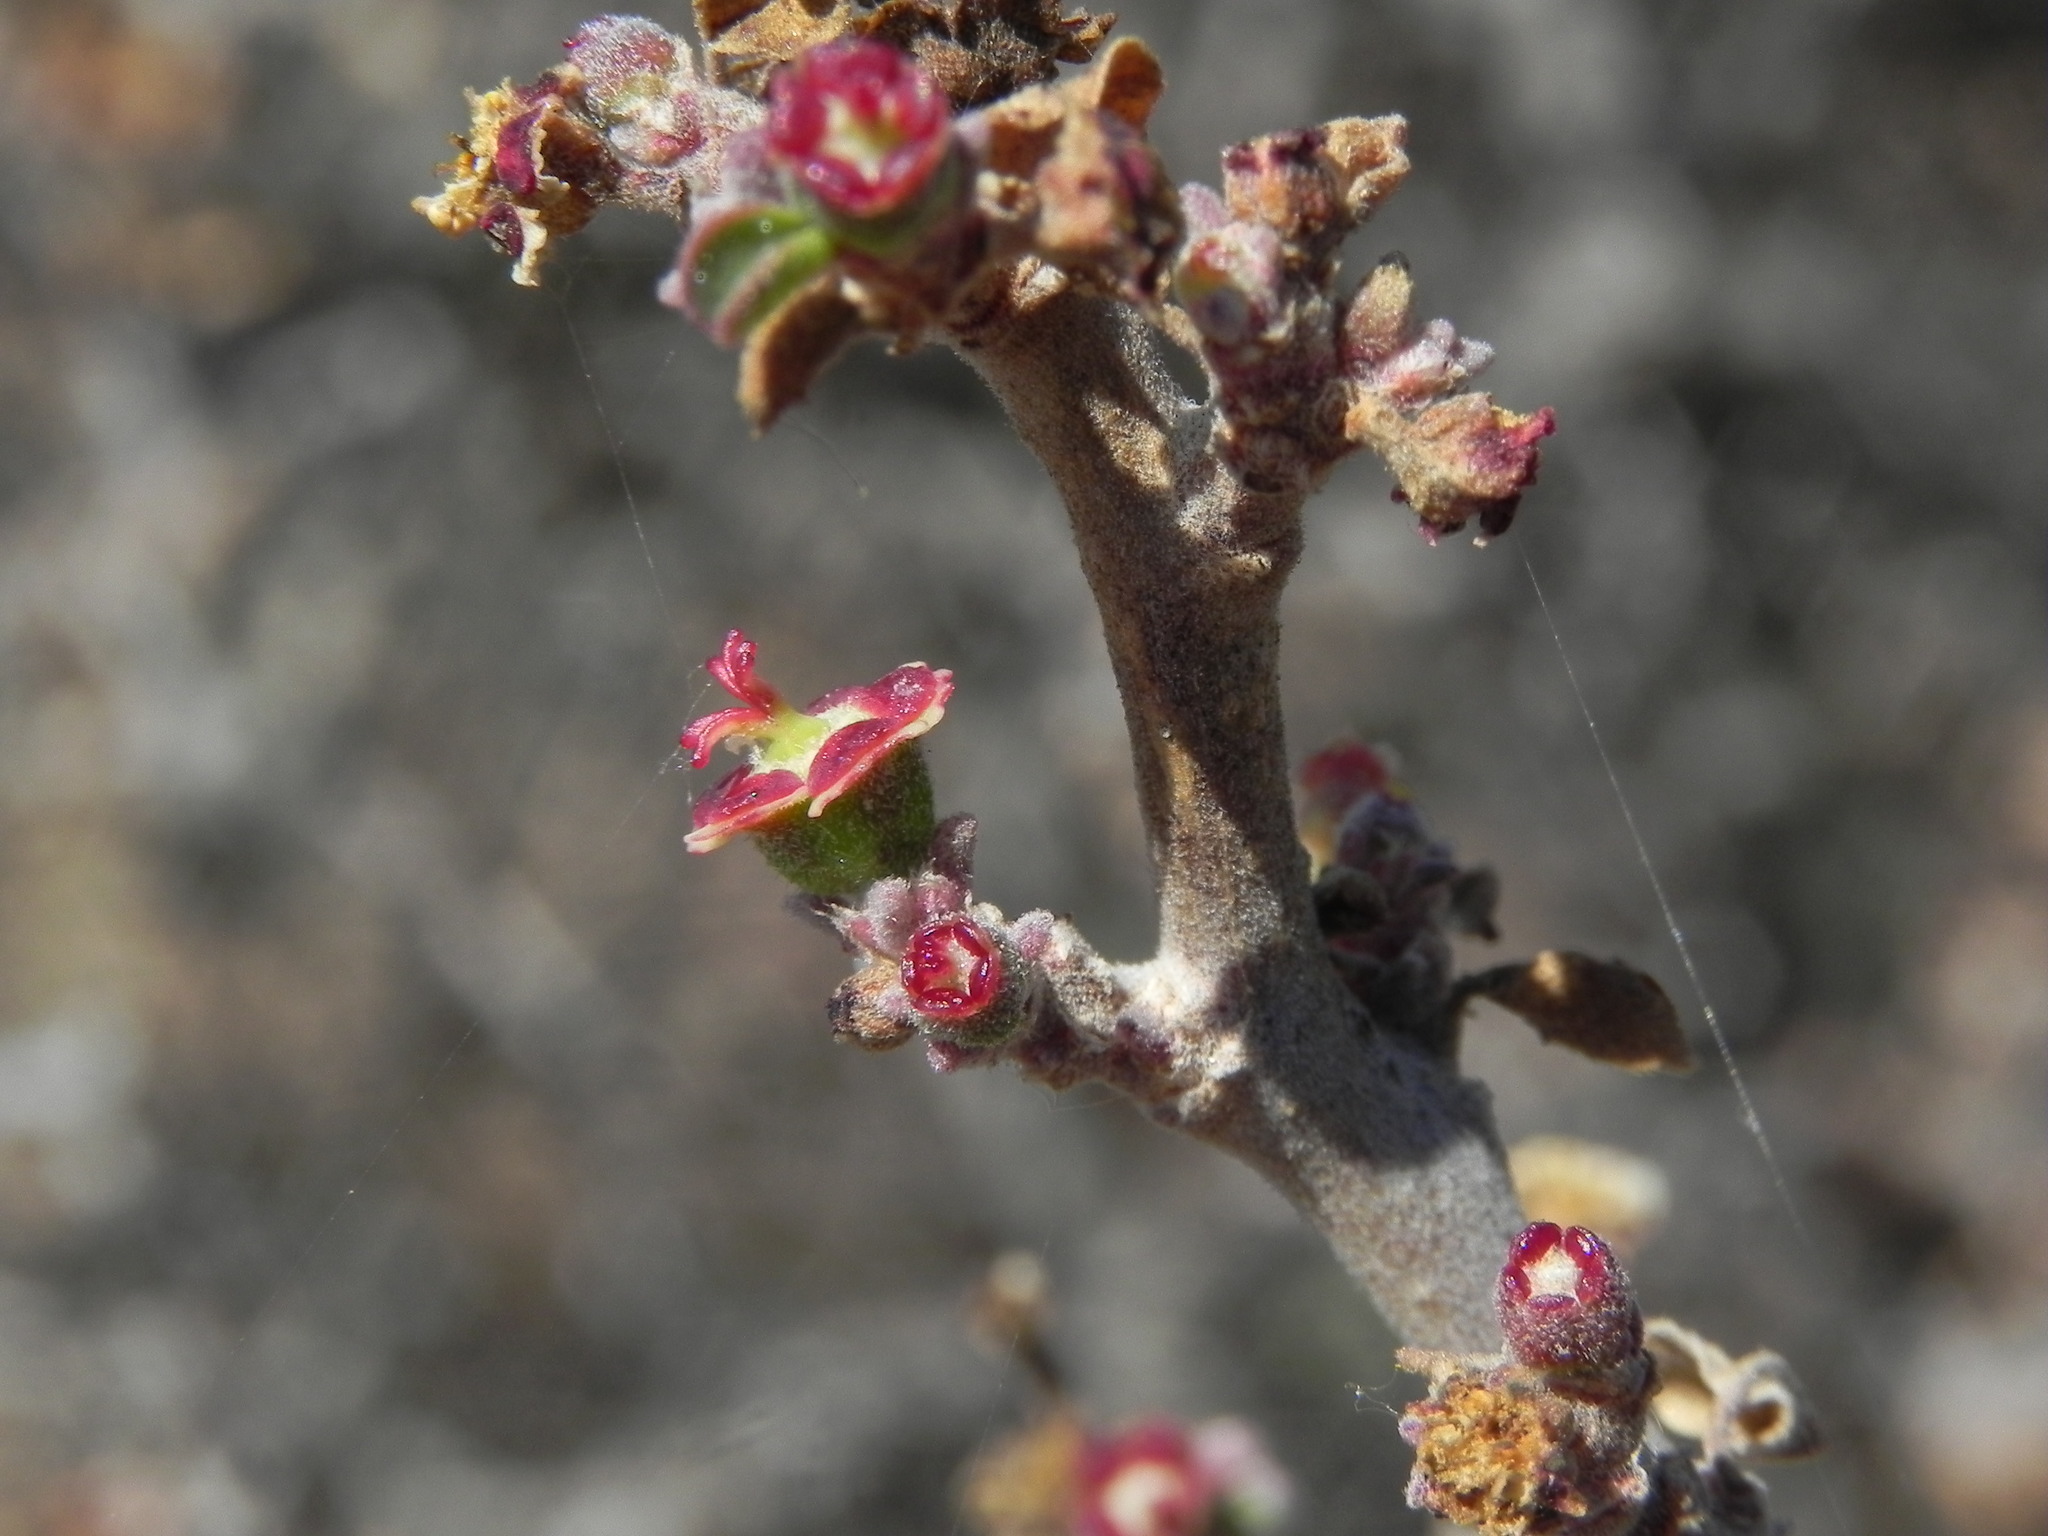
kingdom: Plantae
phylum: Tracheophyta
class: Magnoliopsida
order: Malpighiales
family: Euphorbiaceae
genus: Euphorbia
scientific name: Euphorbia misera
